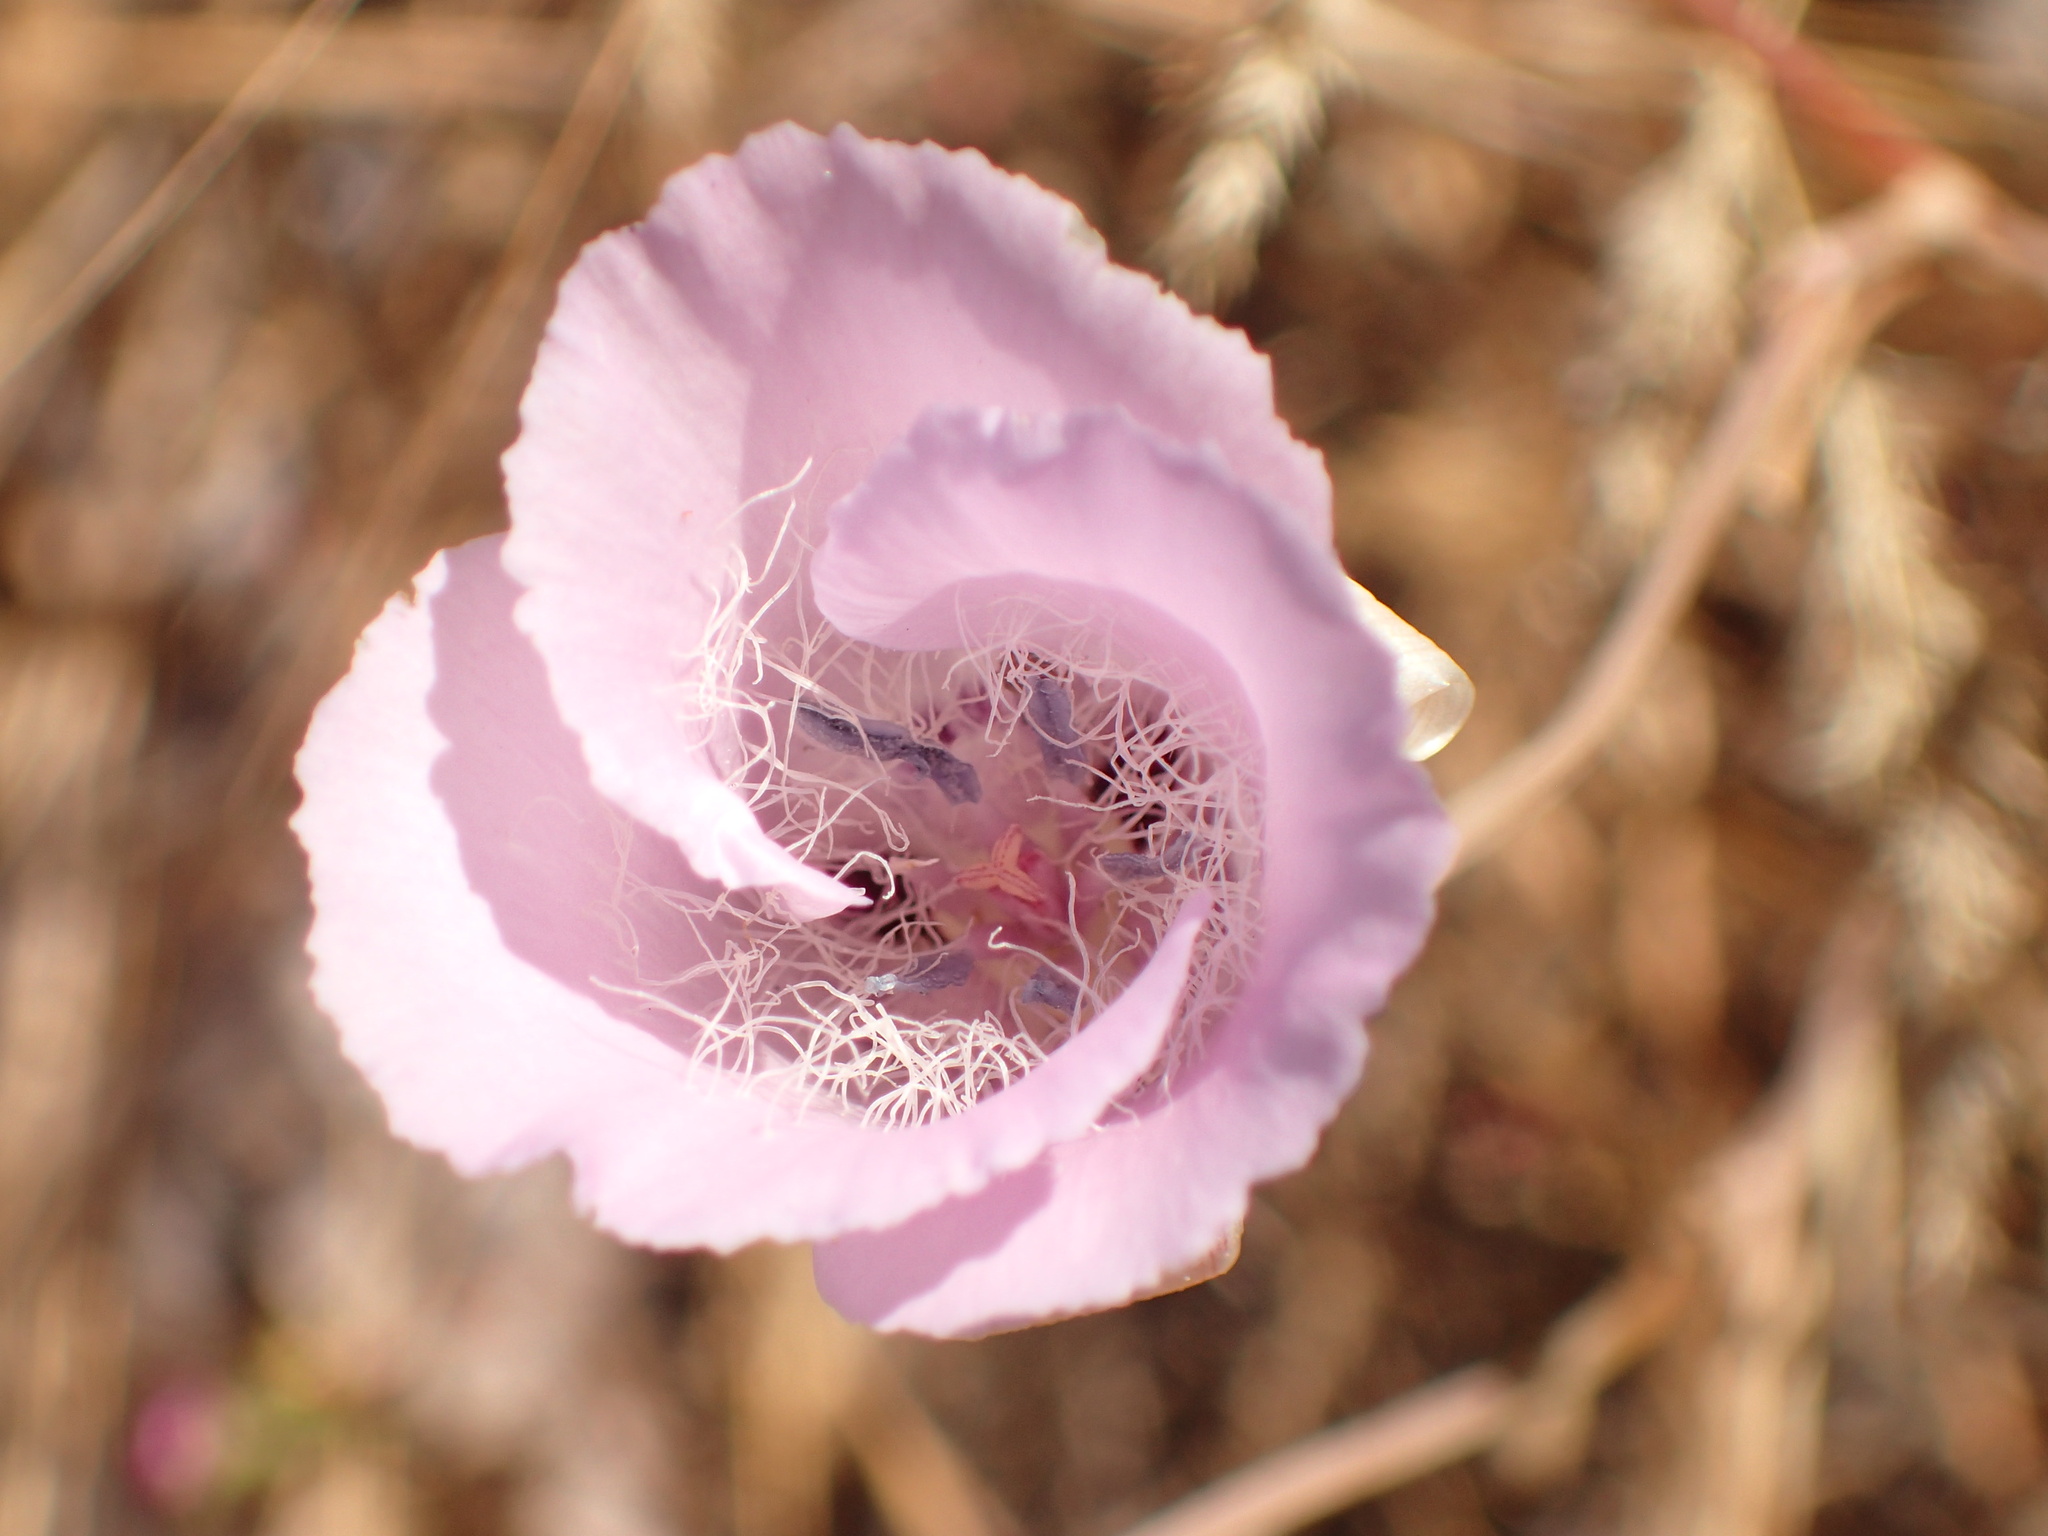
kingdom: Plantae
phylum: Tracheophyta
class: Liliopsida
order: Liliales
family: Liliaceae
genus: Calochortus
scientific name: Calochortus splendens
